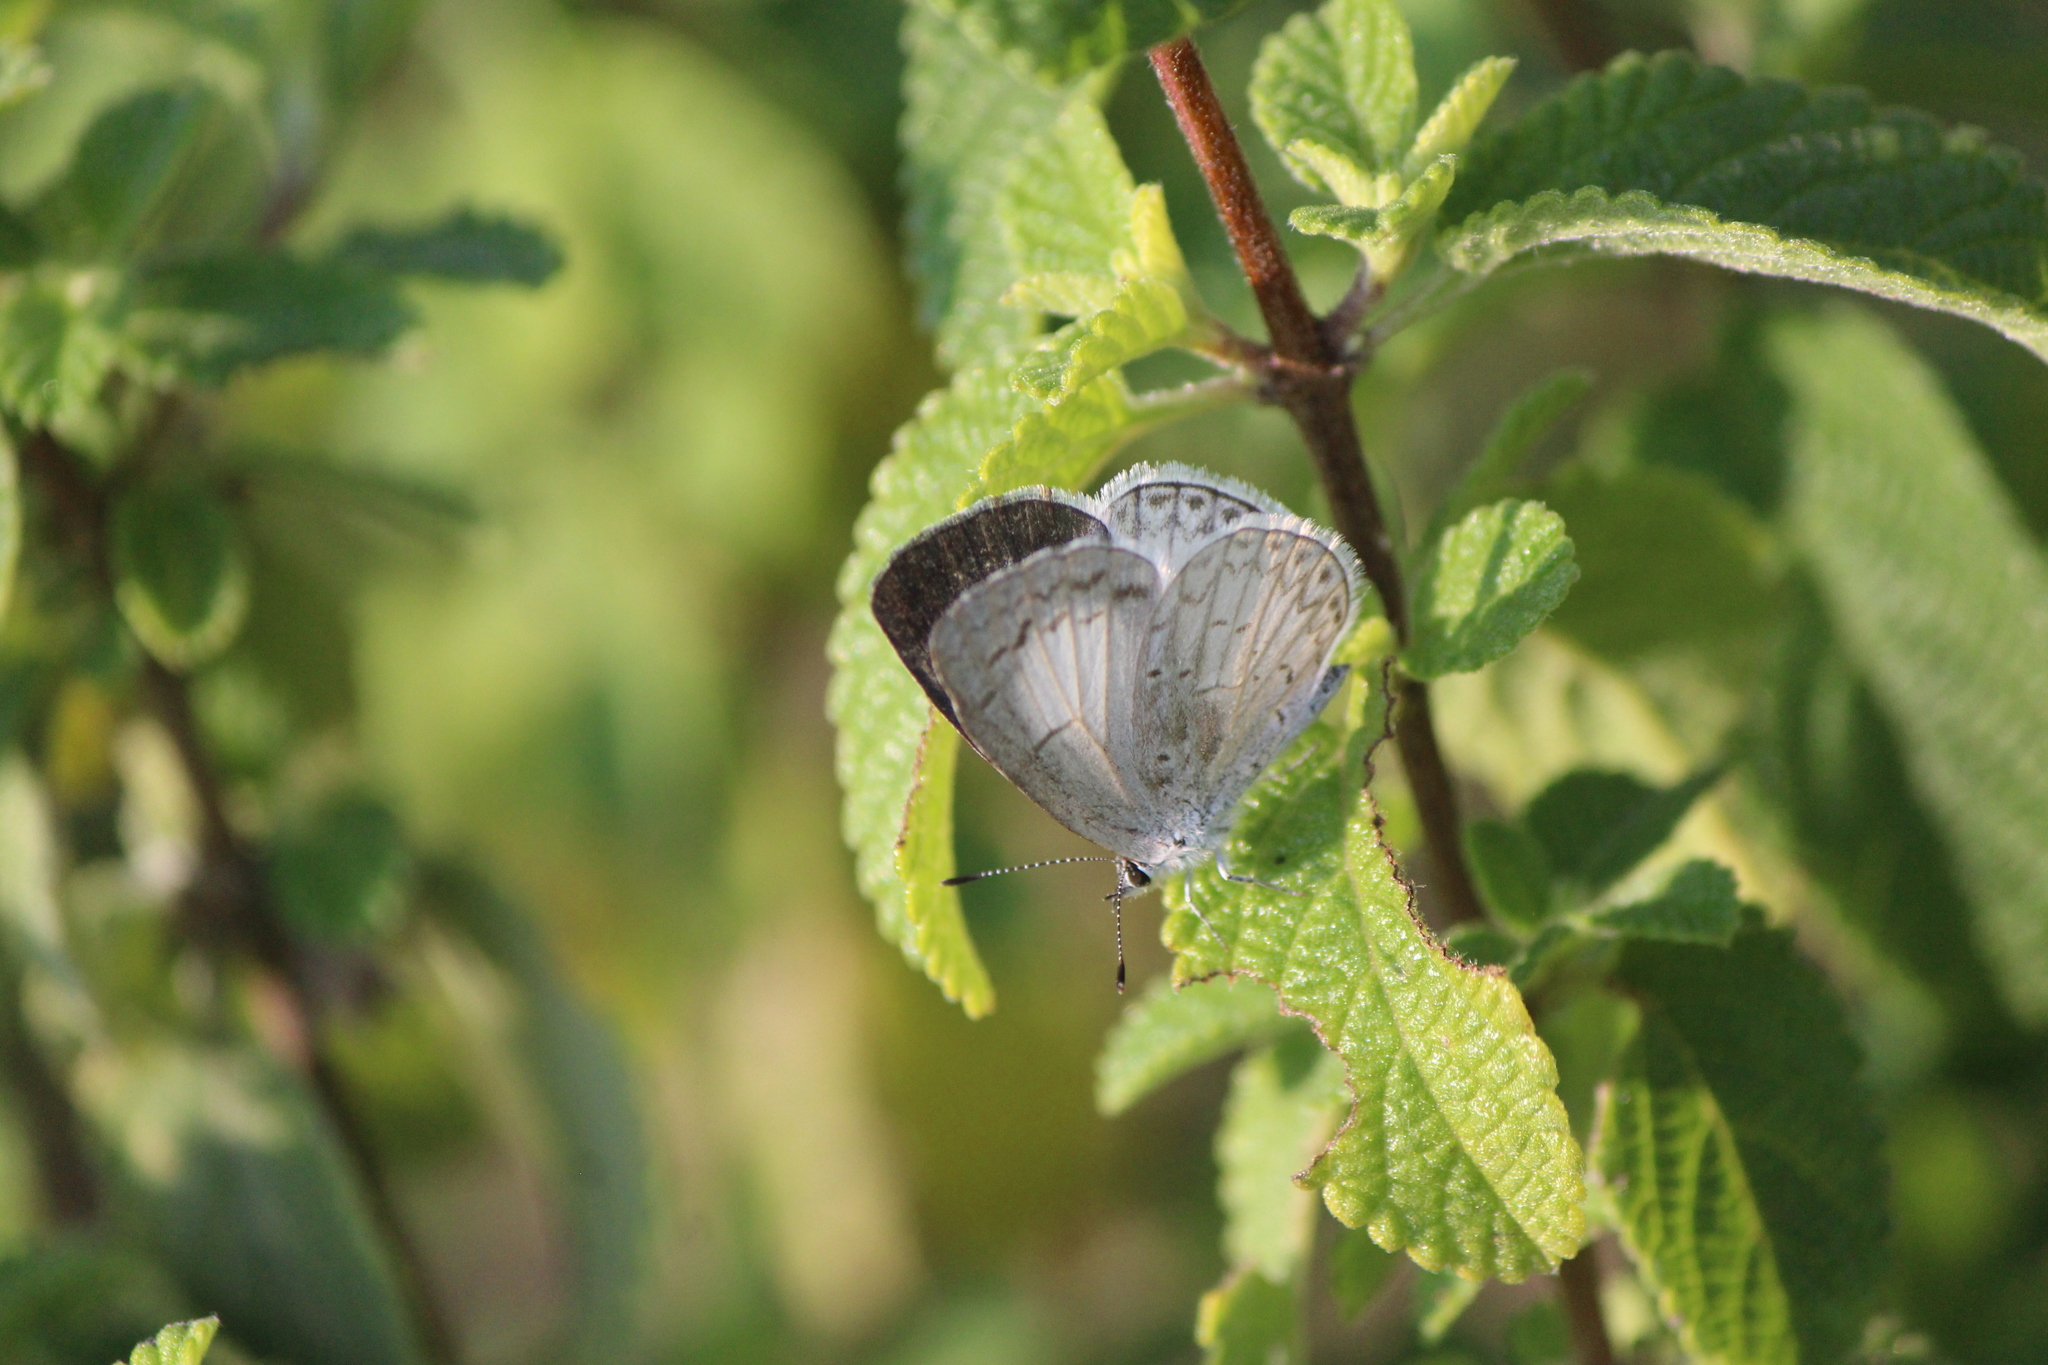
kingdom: Animalia
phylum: Arthropoda
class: Insecta
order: Lepidoptera
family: Lycaenidae
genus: Celastrina
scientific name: Celastrina ladon
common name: Spring azure
